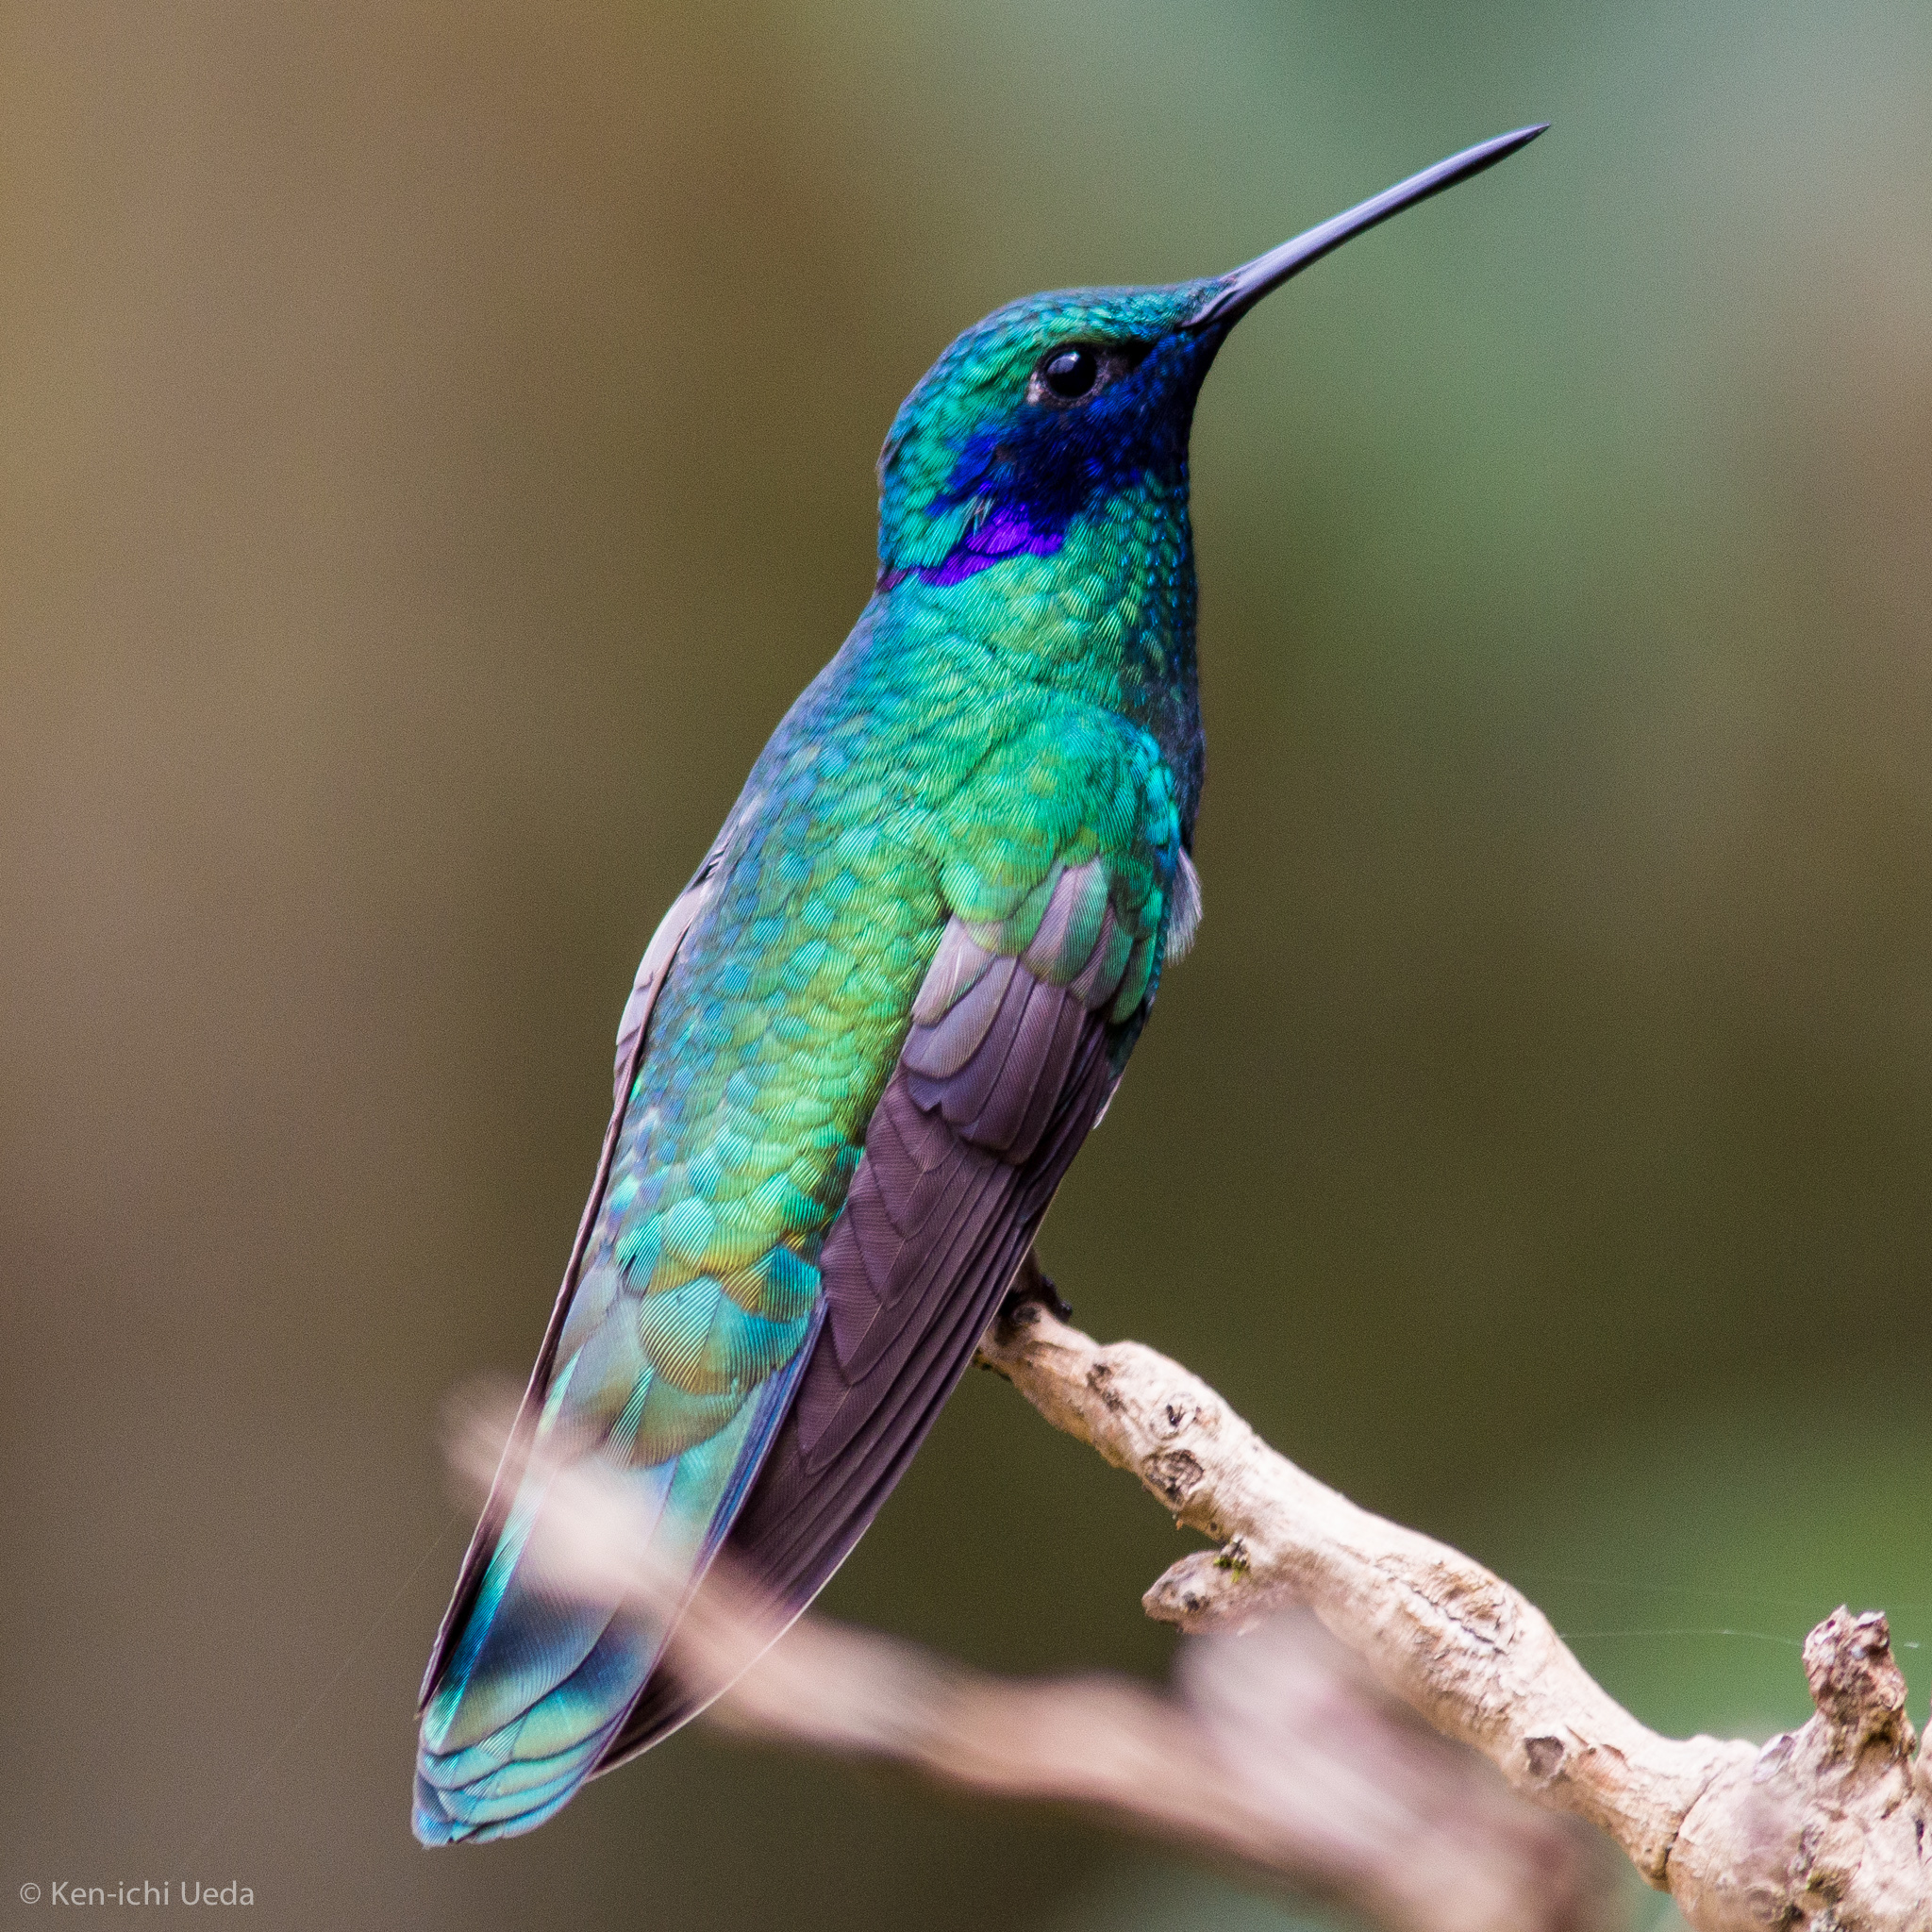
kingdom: Animalia
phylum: Chordata
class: Aves
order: Apodiformes
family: Trochilidae
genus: Colibri
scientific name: Colibri coruscans
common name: Sparkling violetear
